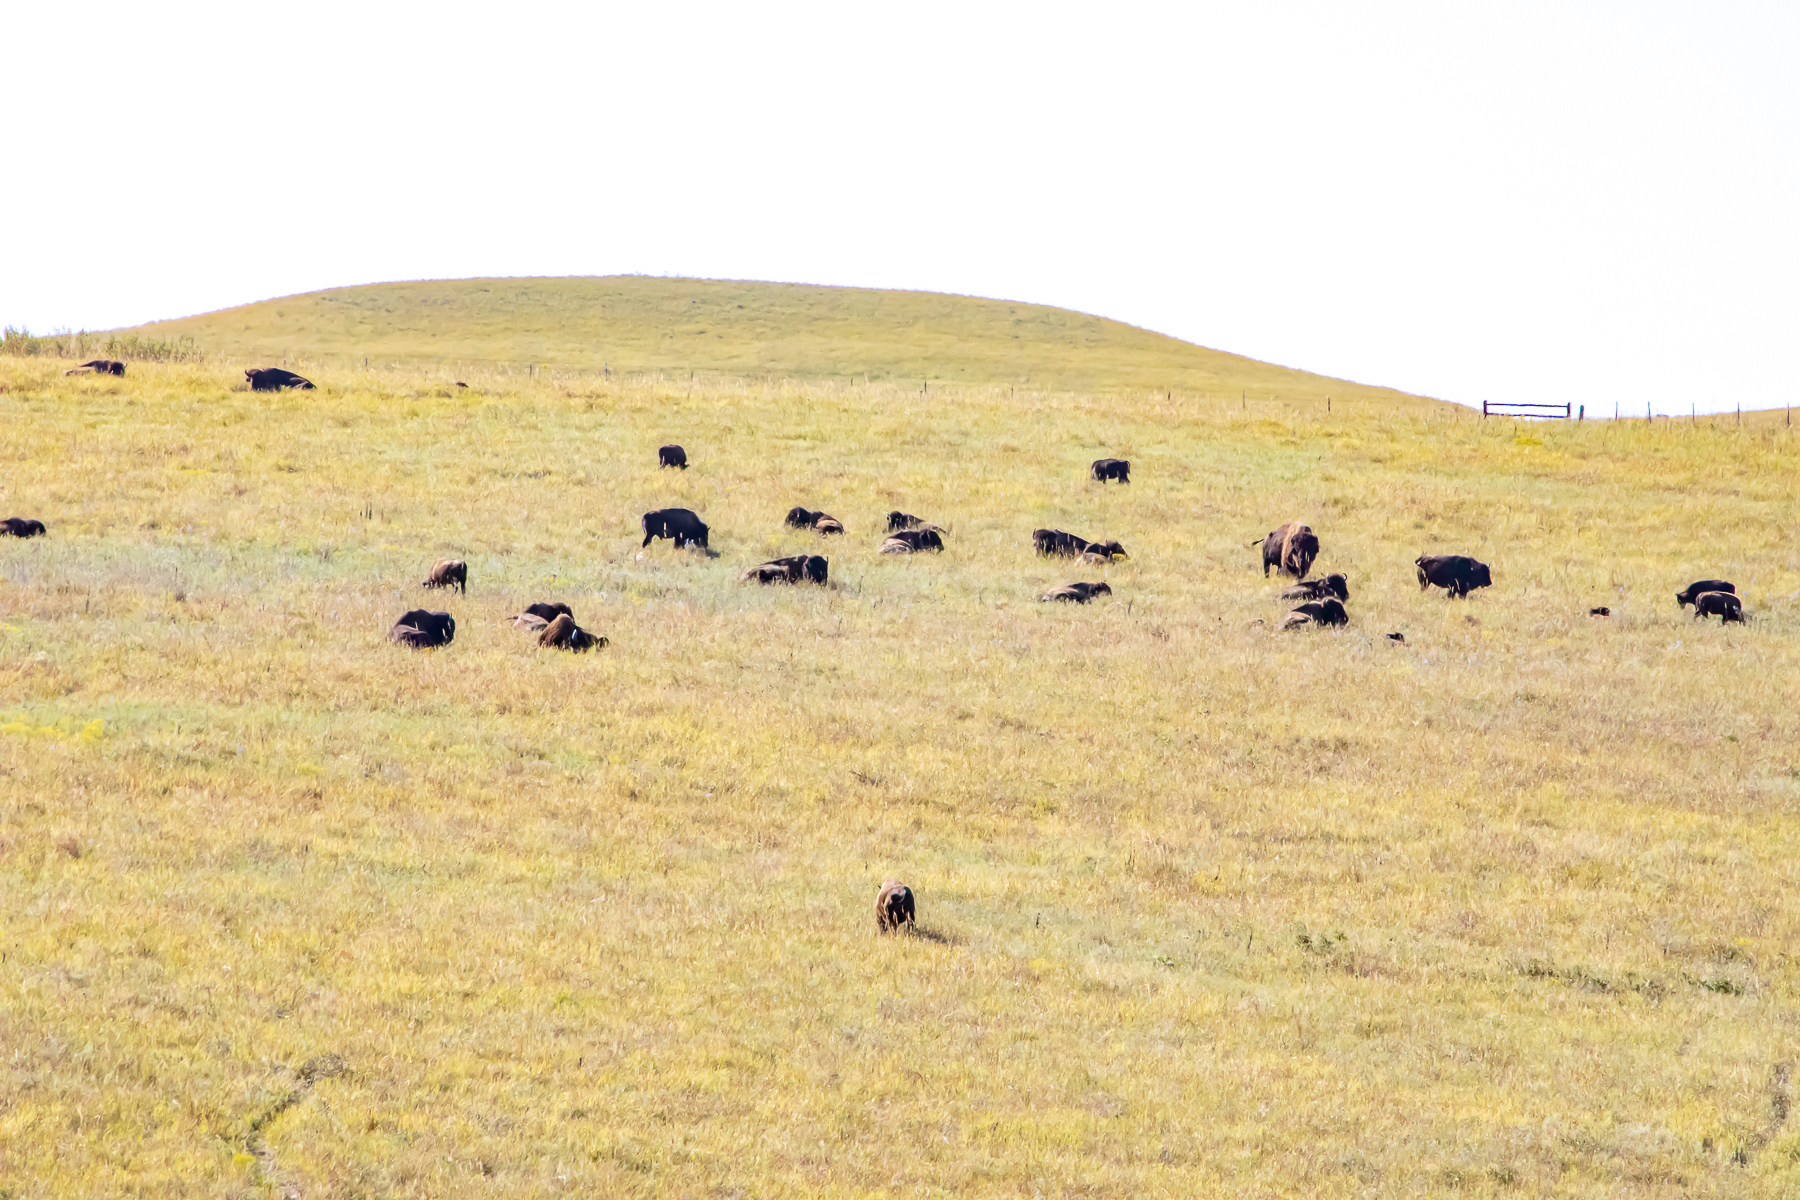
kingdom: Animalia
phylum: Chordata
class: Mammalia
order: Artiodactyla
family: Bovidae
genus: Bison
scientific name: Bison bison
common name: American bison
